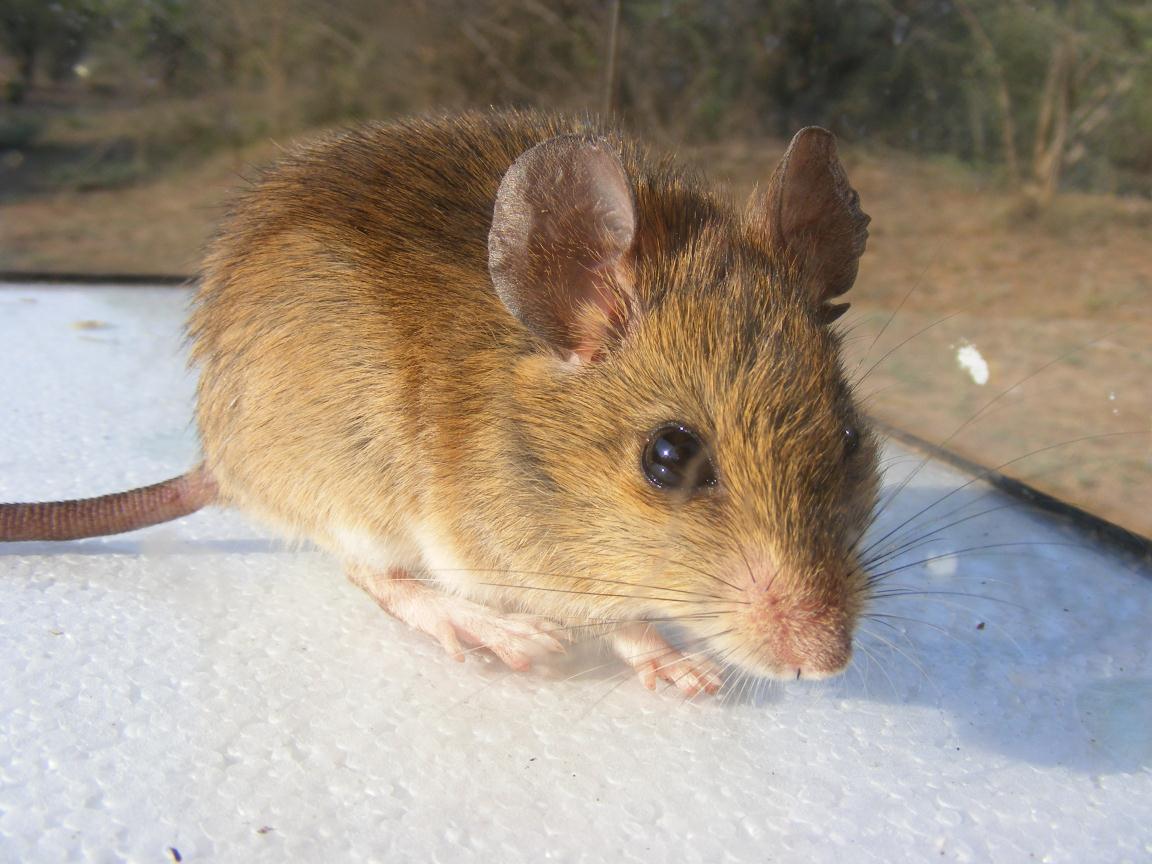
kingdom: Animalia
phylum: Chordata
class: Mammalia
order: Rodentia
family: Muridae
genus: Aethomys
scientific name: Aethomys ineptus
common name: Tete veld aethomys
